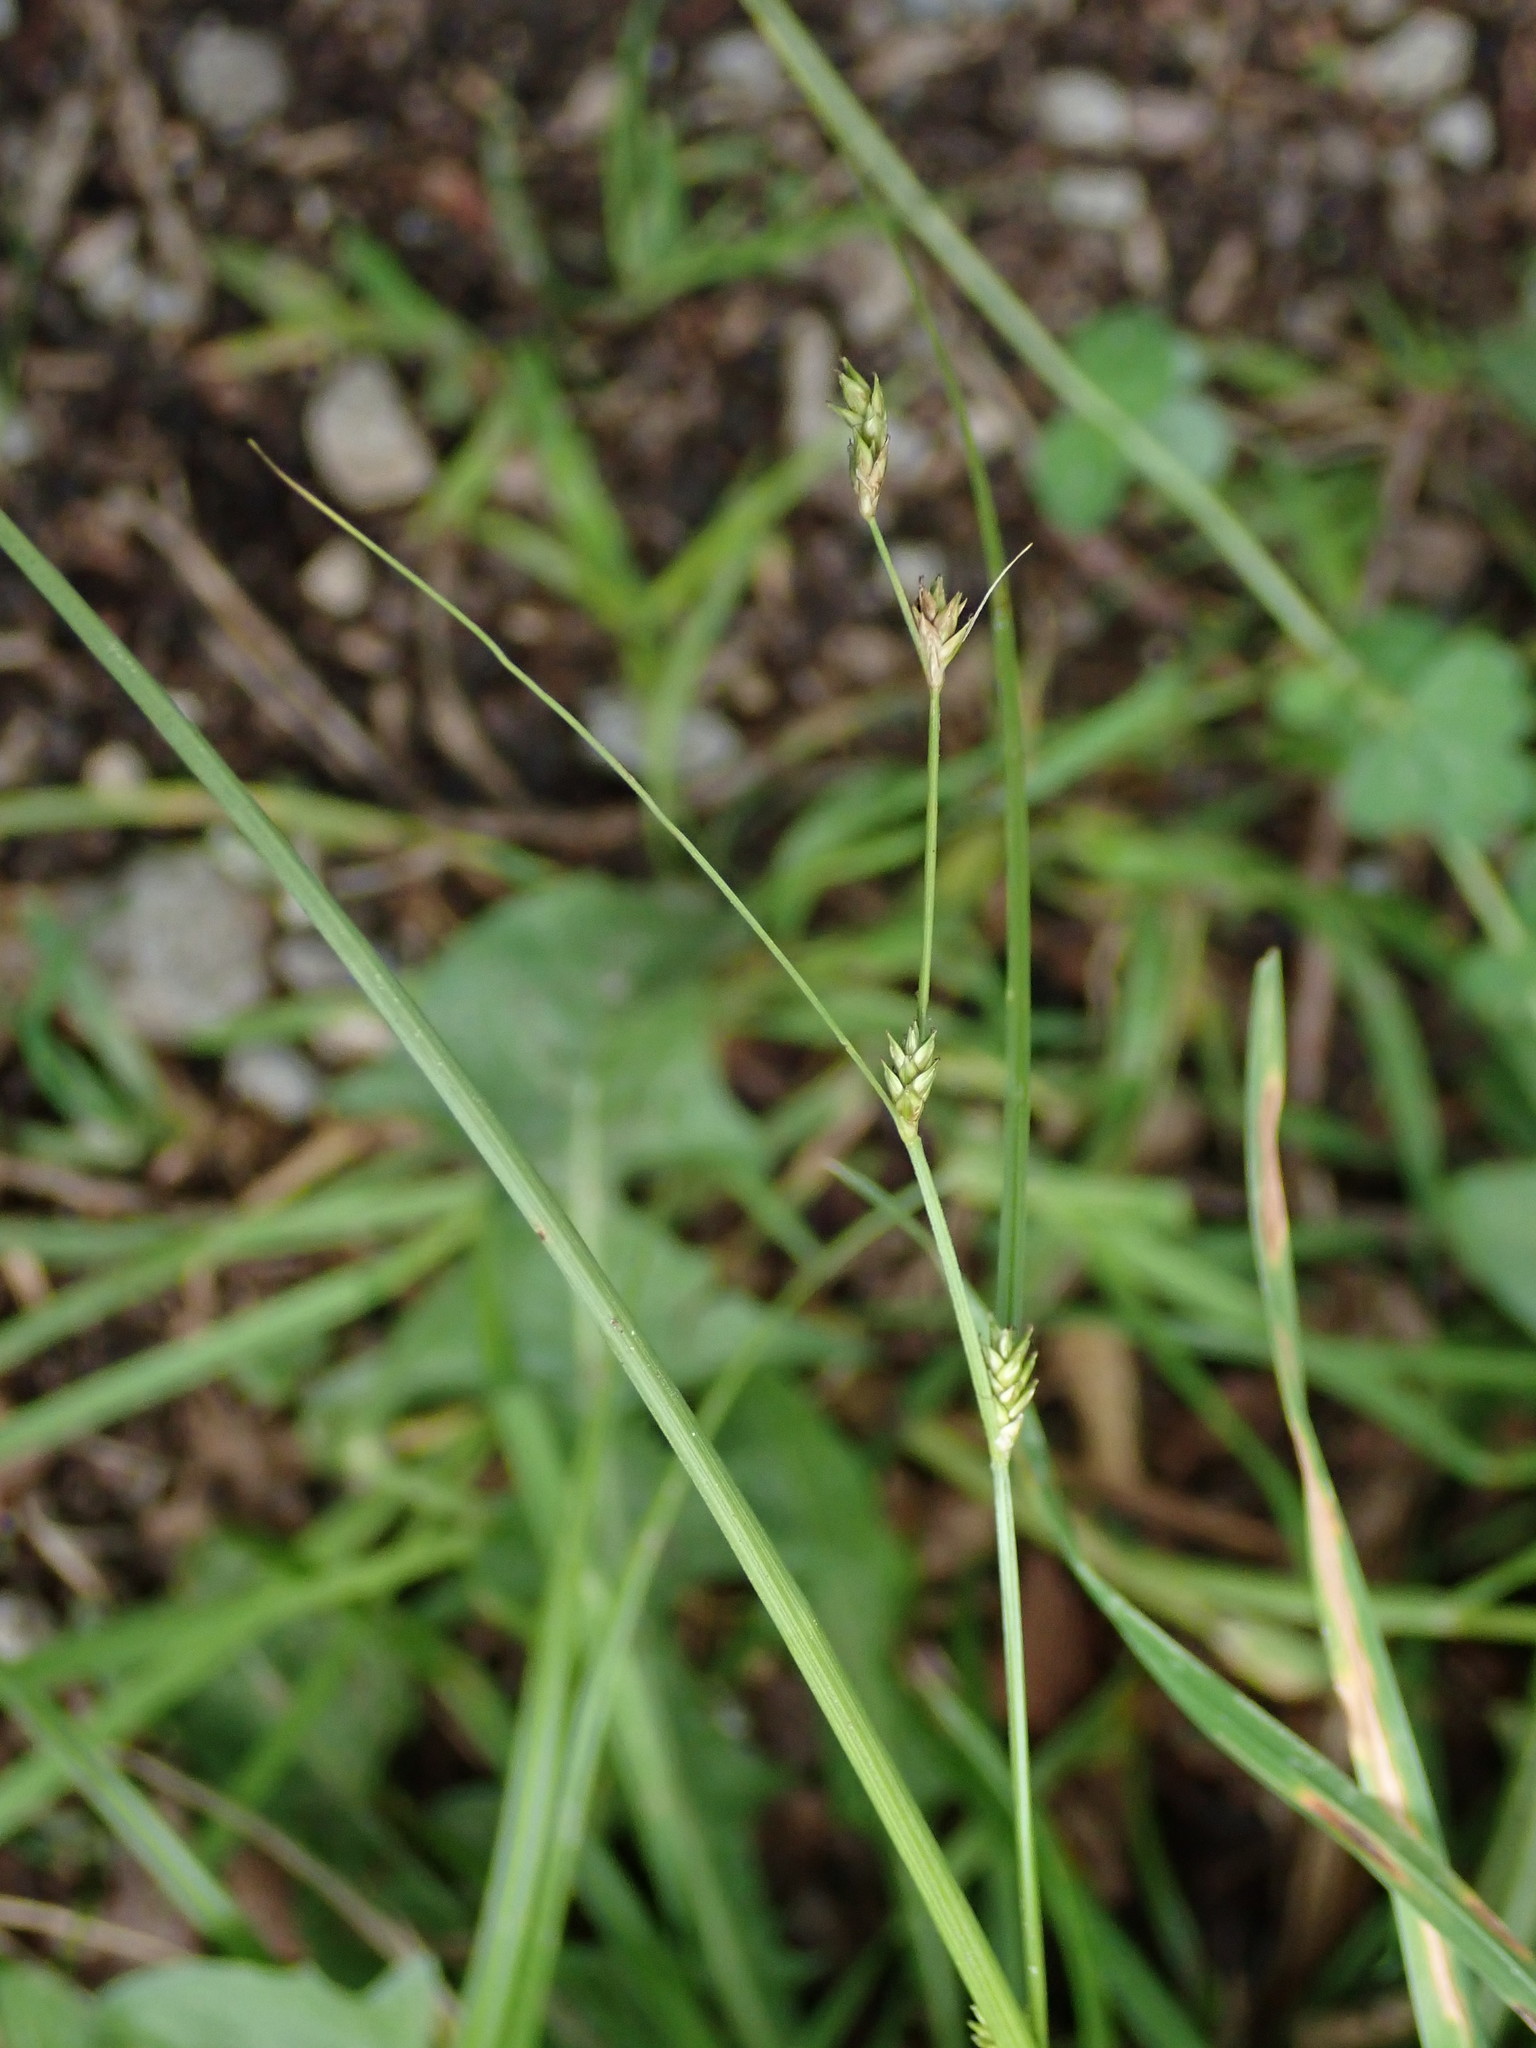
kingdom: Plantae
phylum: Tracheophyta
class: Liliopsida
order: Poales
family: Cyperaceae
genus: Carex
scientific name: Carex remota
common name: Remote sedge
